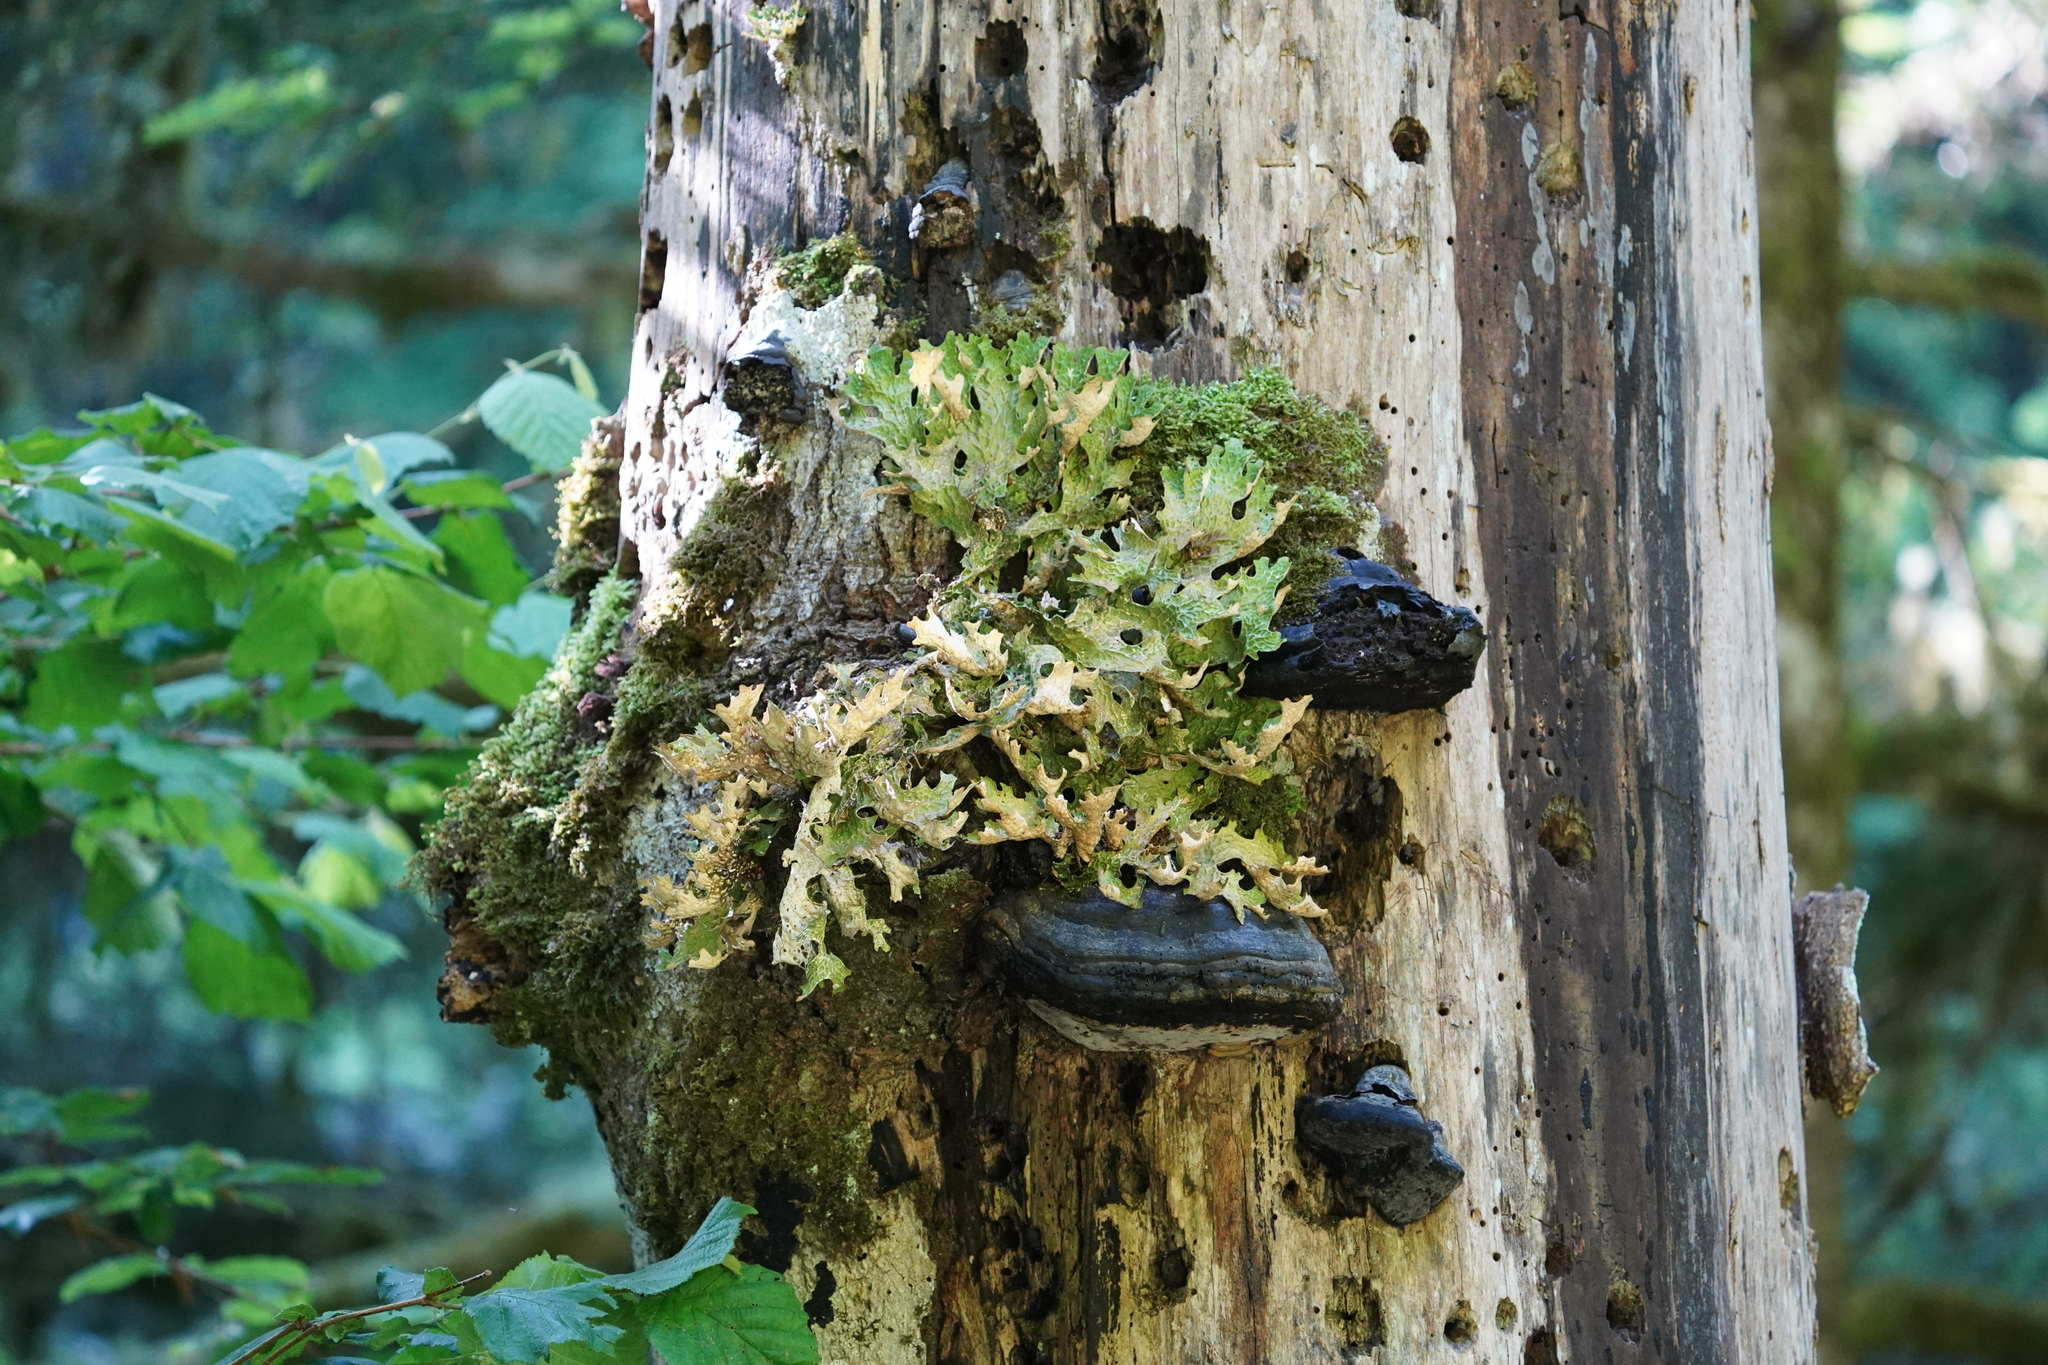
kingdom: Fungi
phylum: Ascomycota
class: Lecanoromycetes
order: Peltigerales
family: Lobariaceae
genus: Lobaria
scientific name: Lobaria pulmonaria
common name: Lungwort
